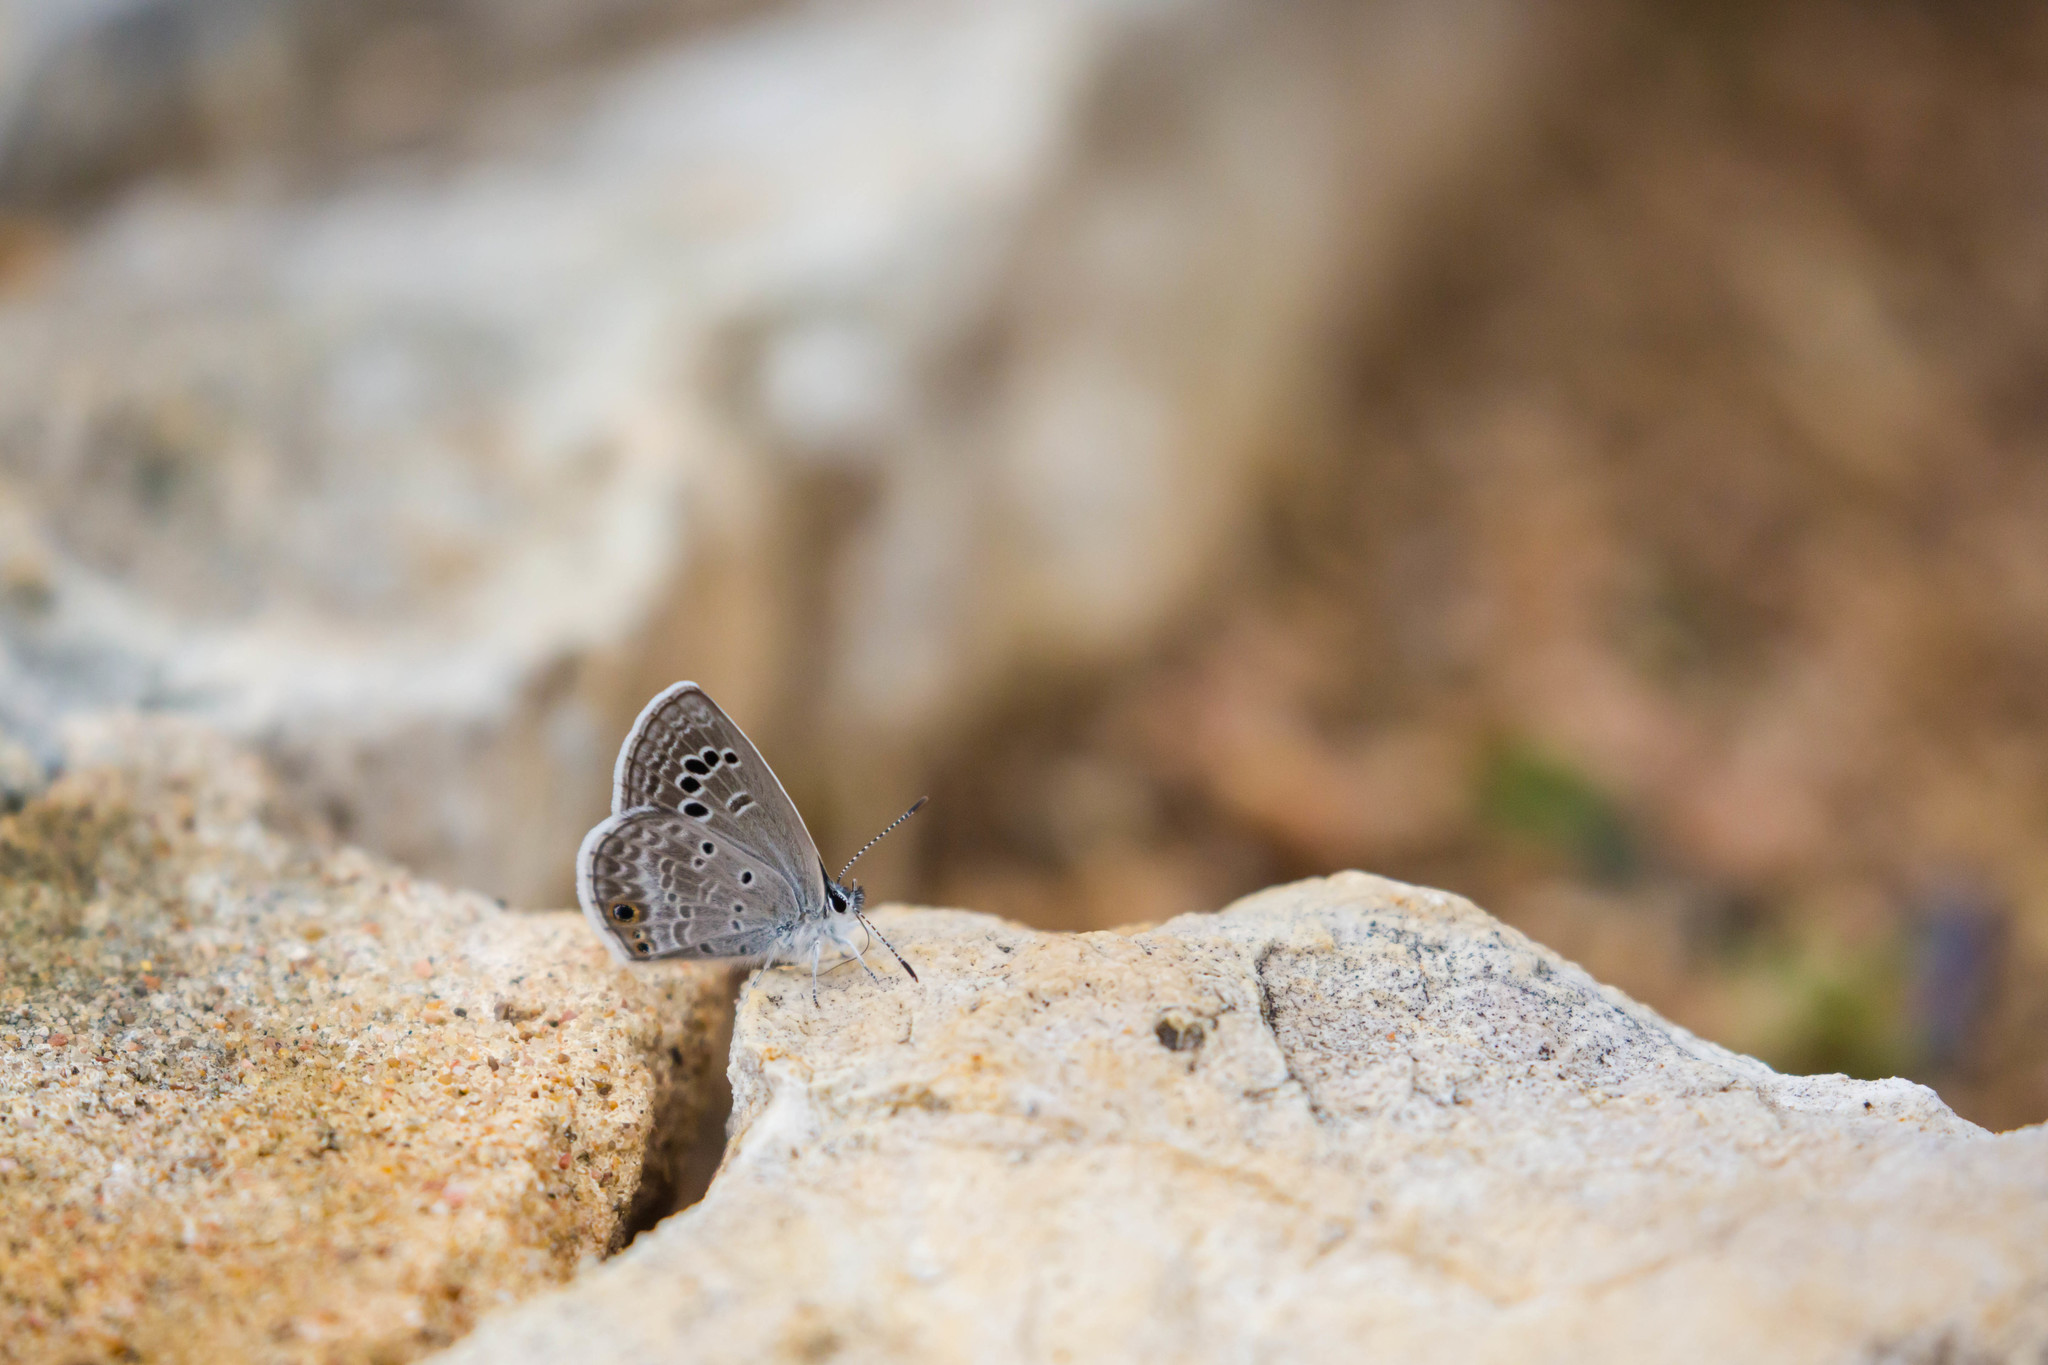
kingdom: Animalia
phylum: Arthropoda
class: Insecta
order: Lepidoptera
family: Lycaenidae
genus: Echinargus
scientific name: Echinargus isola
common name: Reakirt's blue
